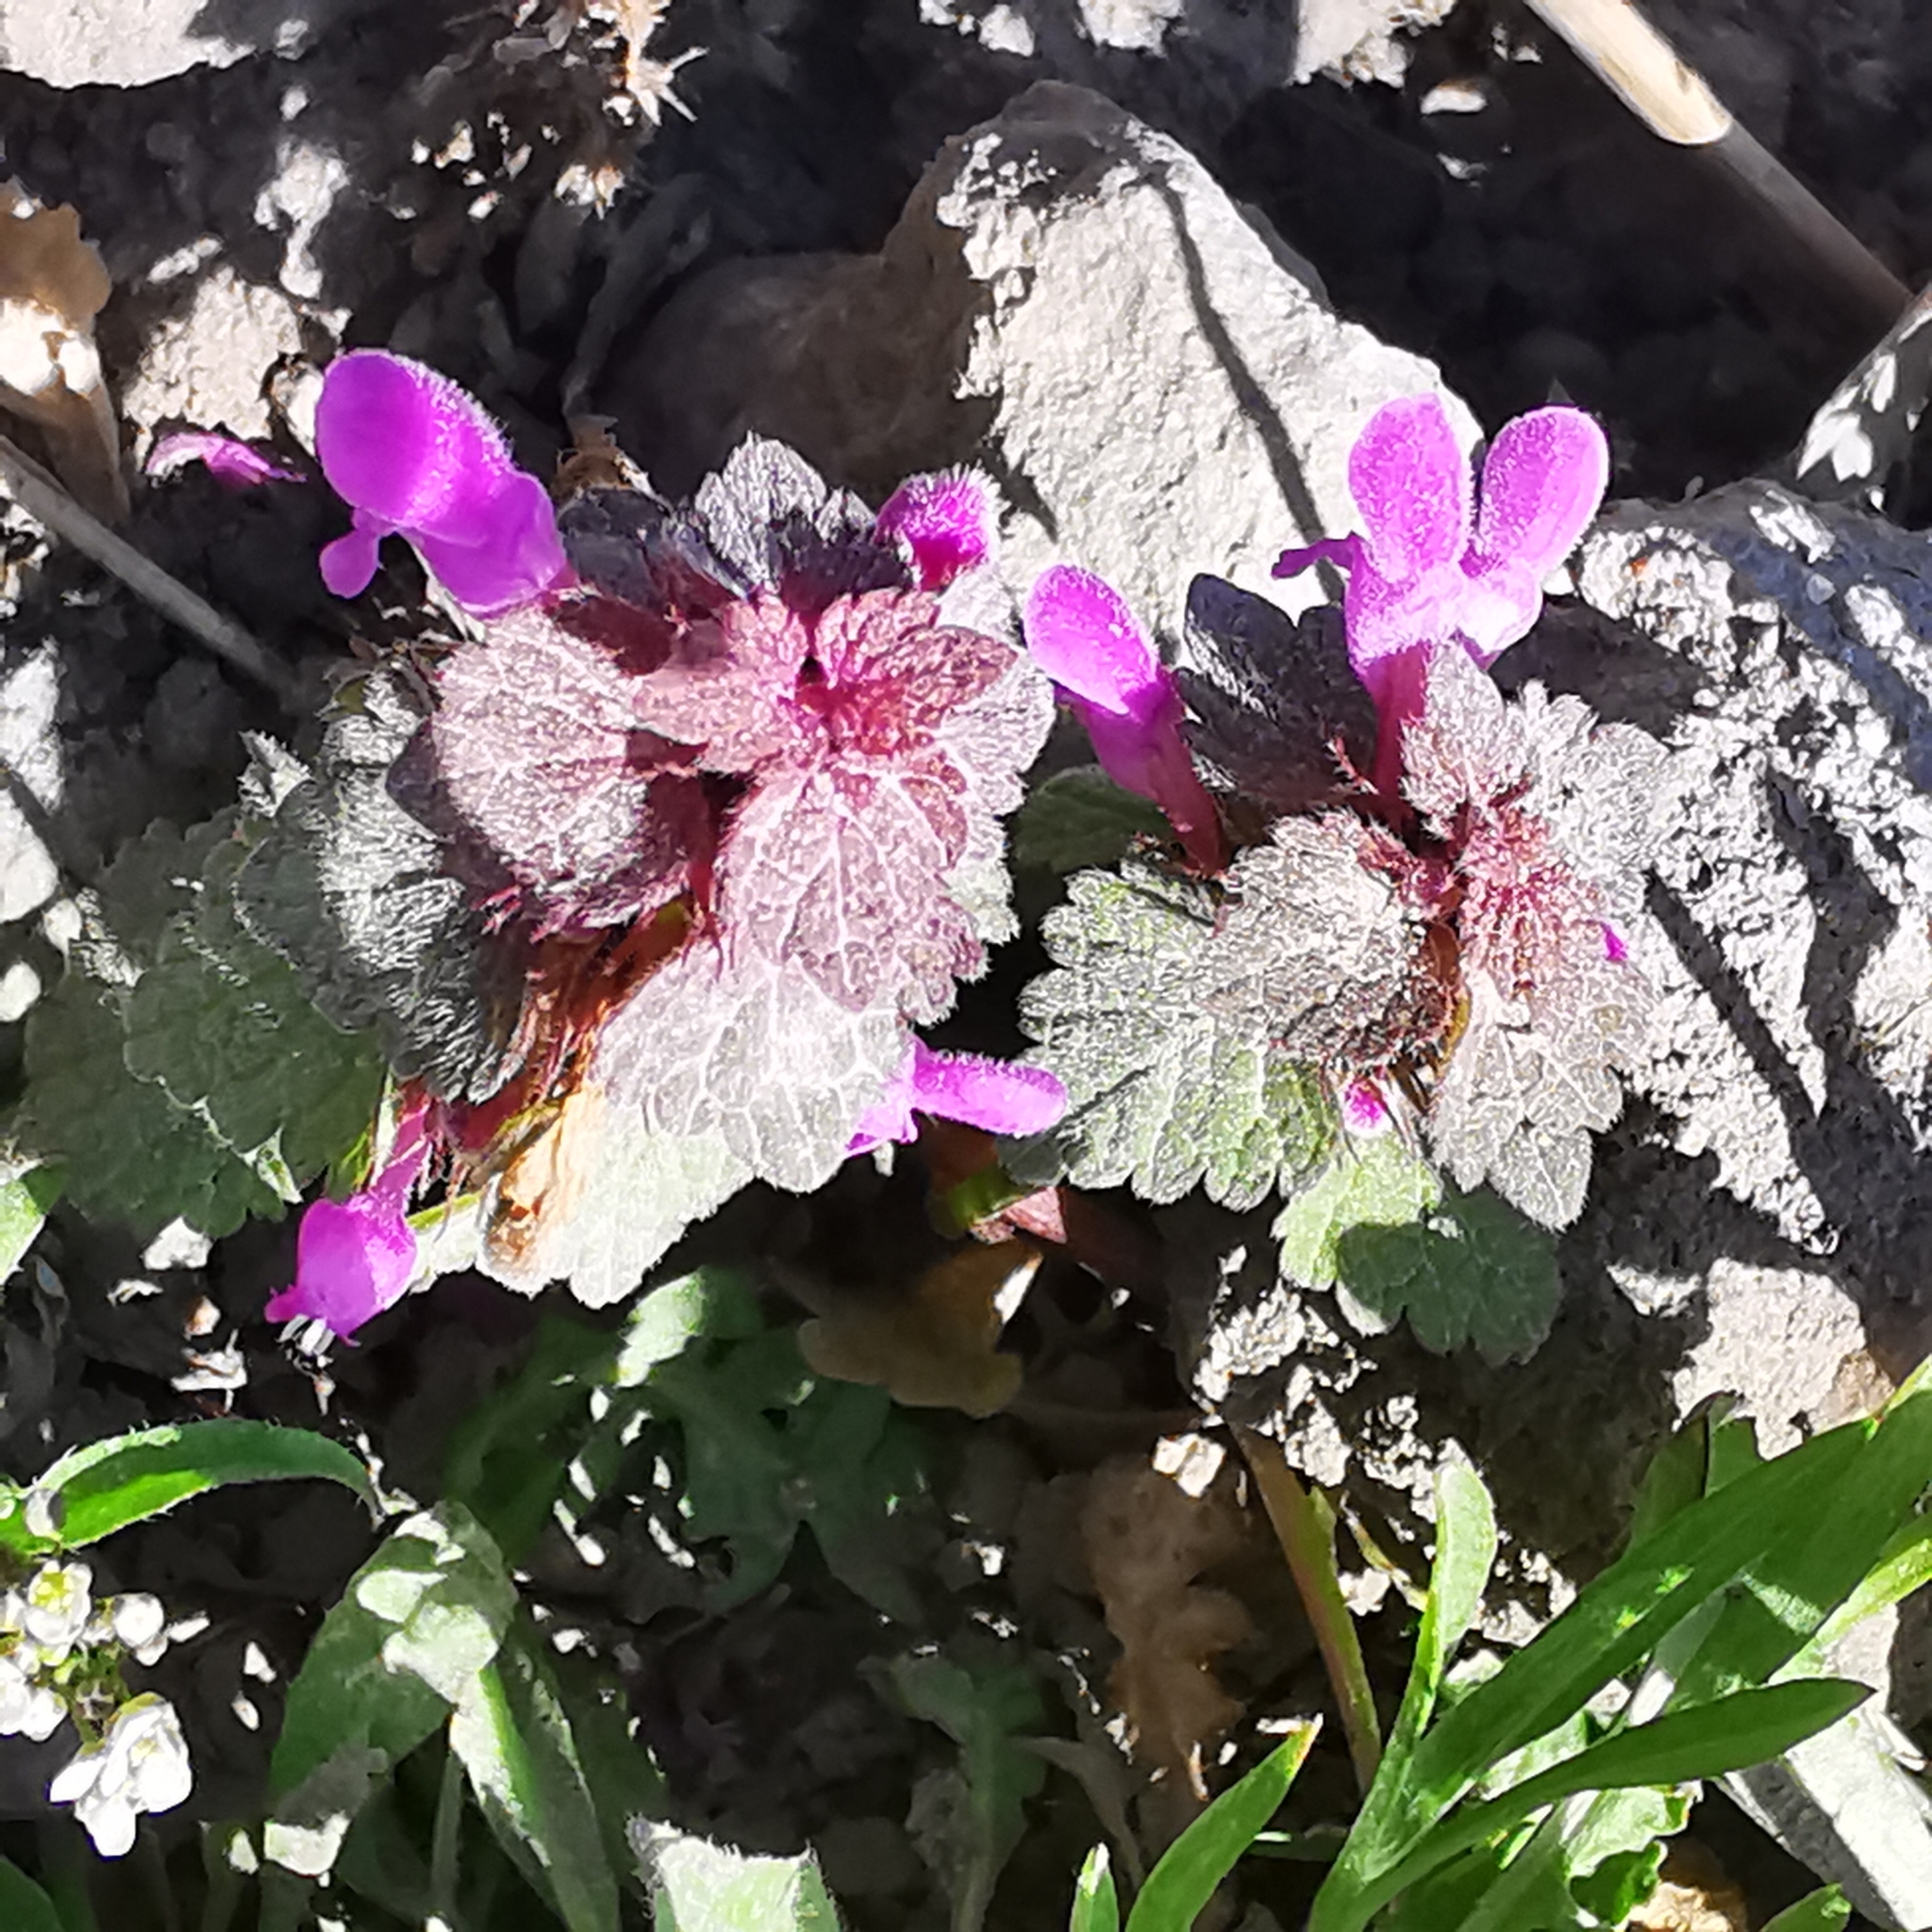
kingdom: Plantae
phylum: Tracheophyta
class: Magnoliopsida
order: Lamiales
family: Lamiaceae
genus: Lamium
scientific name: Lamium purpureum
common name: Red dead-nettle
